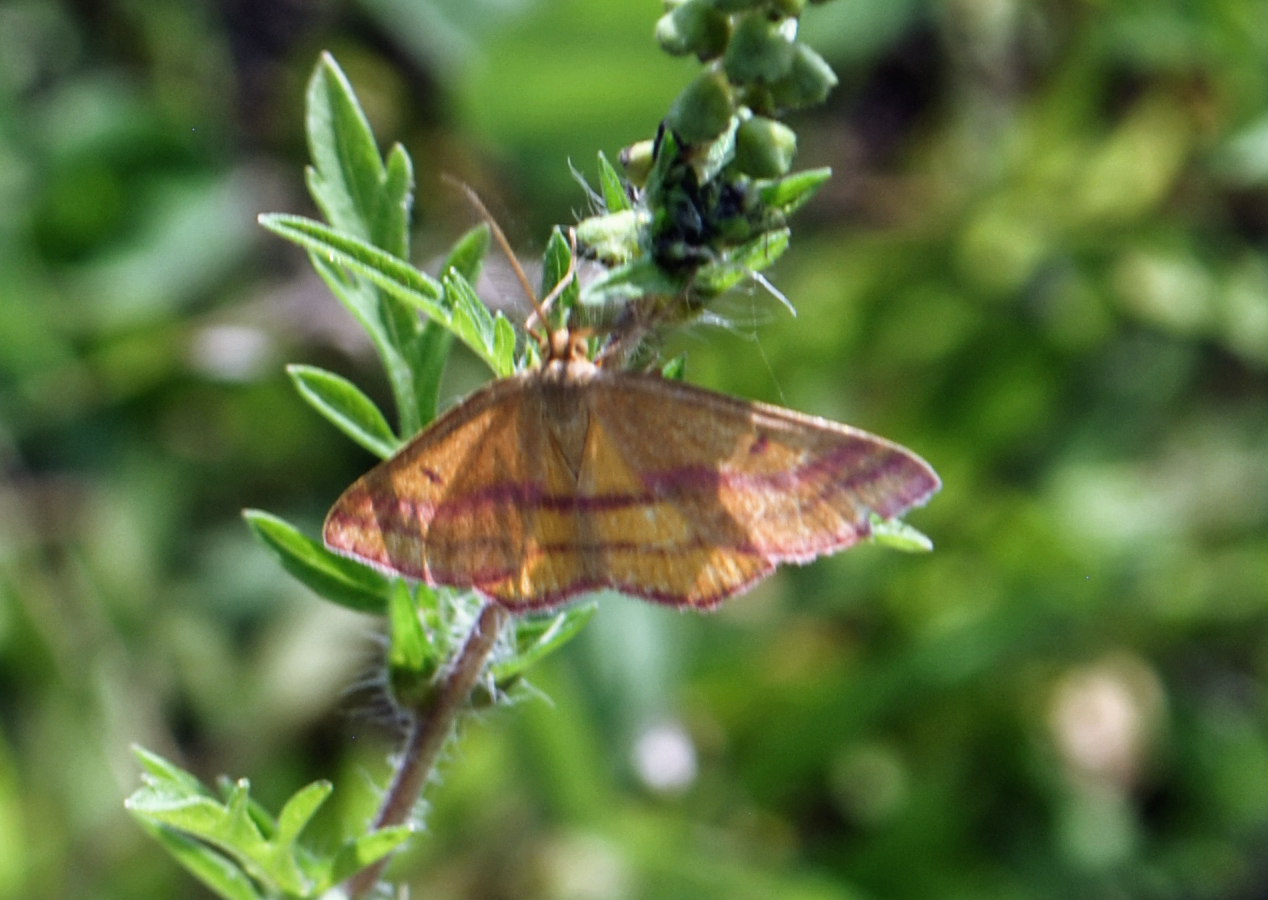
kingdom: Animalia
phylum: Arthropoda
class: Insecta
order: Lepidoptera
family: Geometridae
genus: Haematopis
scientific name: Haematopis grataria
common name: Chickweed geometer
